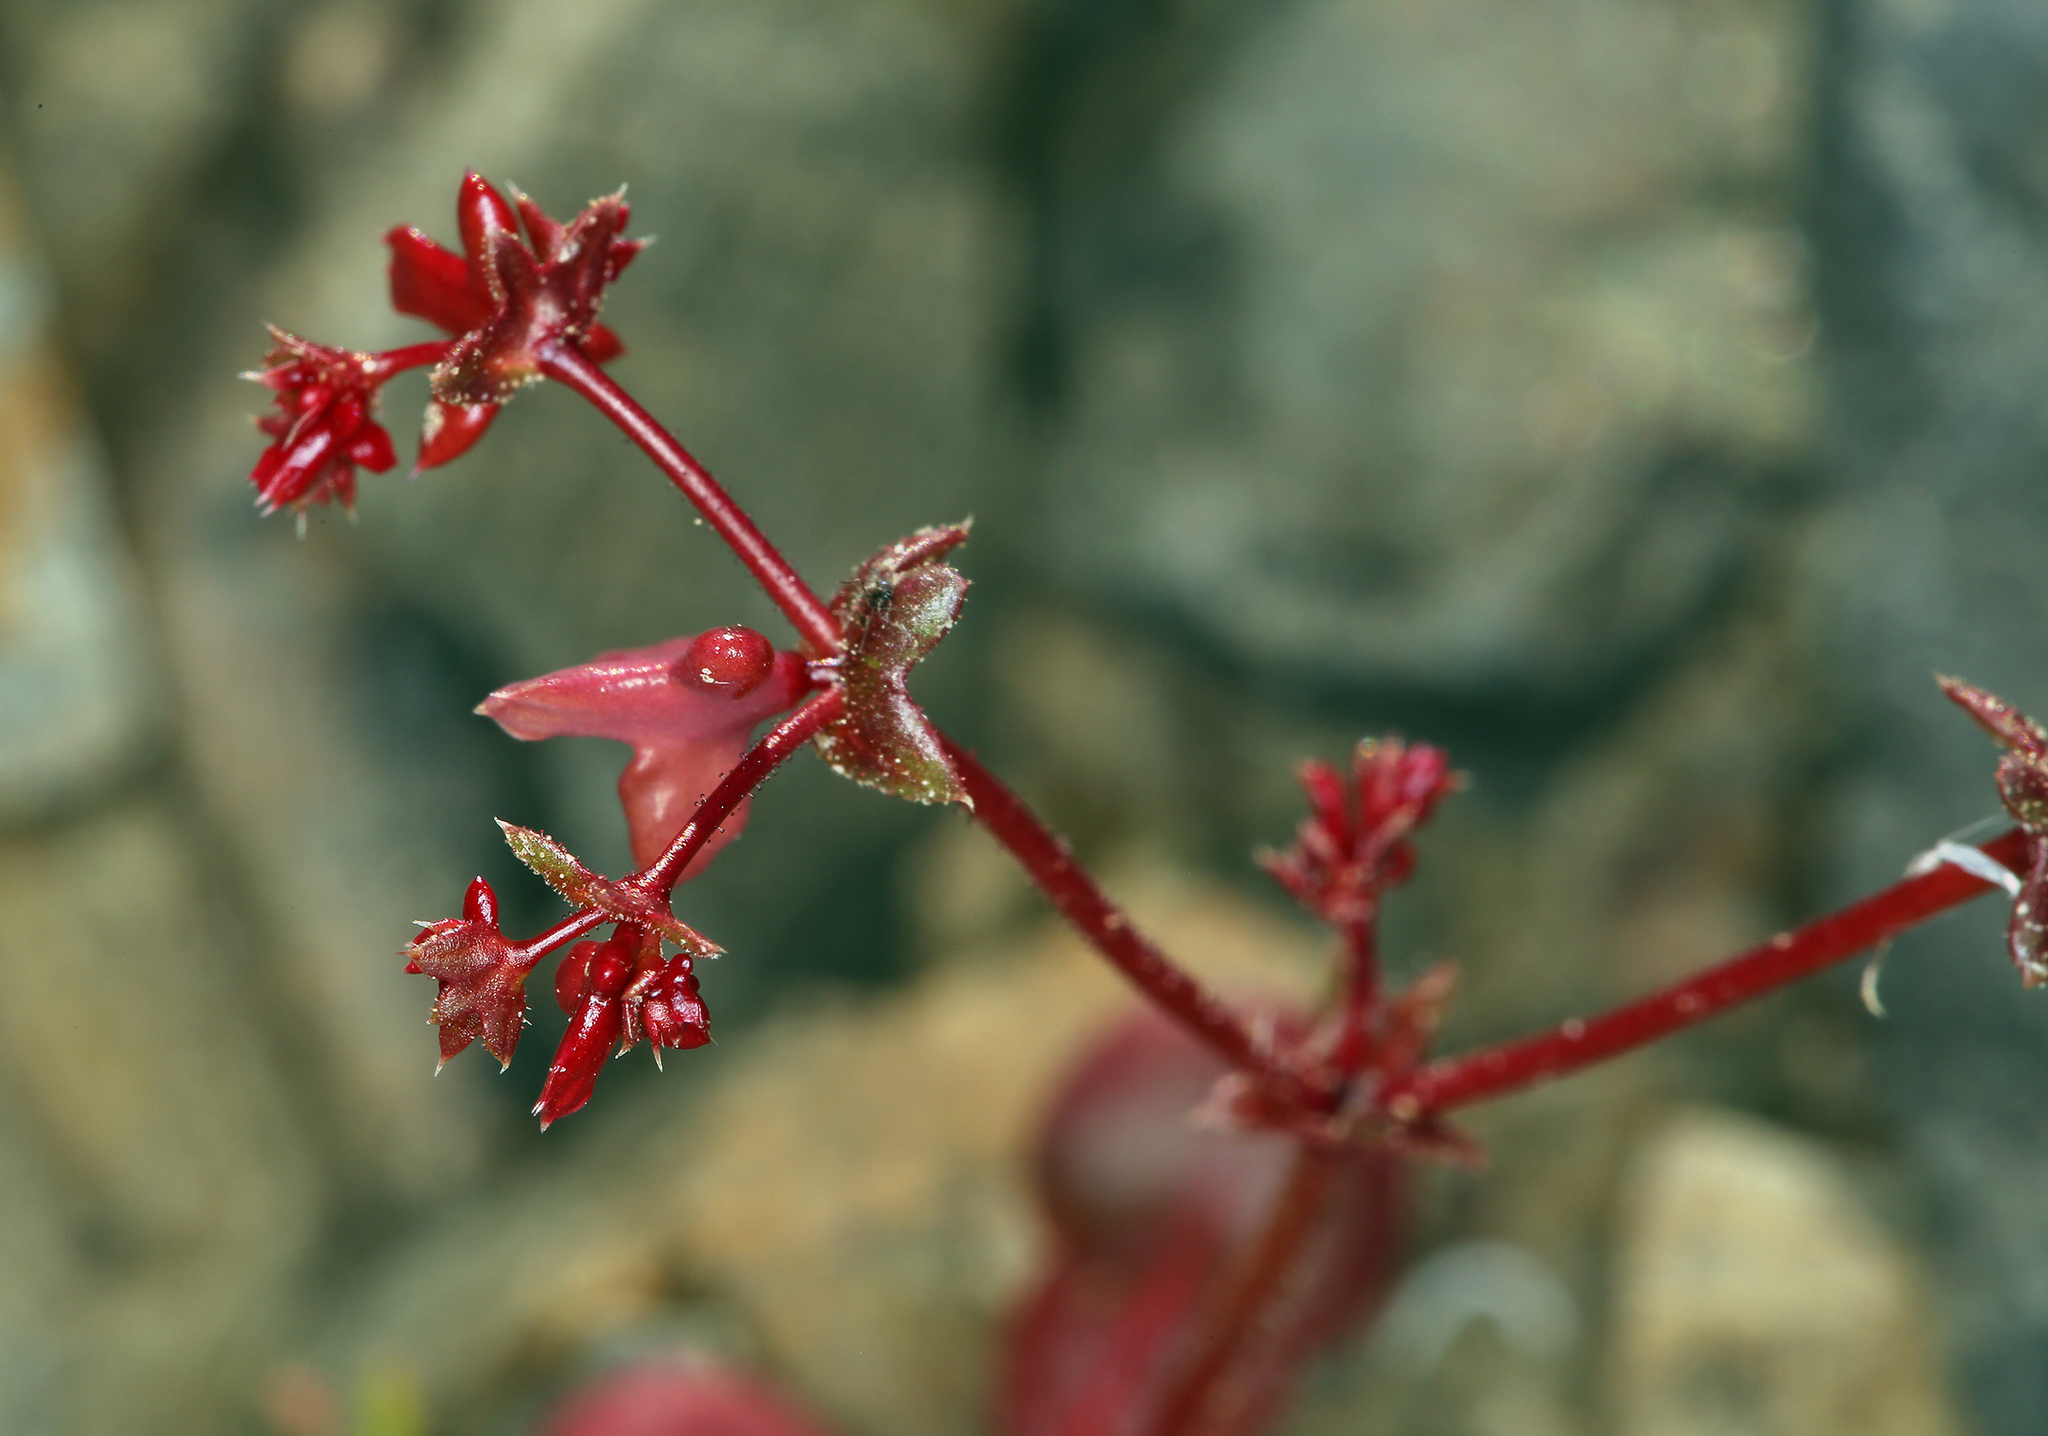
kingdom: Plantae
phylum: Tracheophyta
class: Magnoliopsida
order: Caryophyllales
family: Polygonaceae
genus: Centrostegia
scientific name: Centrostegia thurberi
